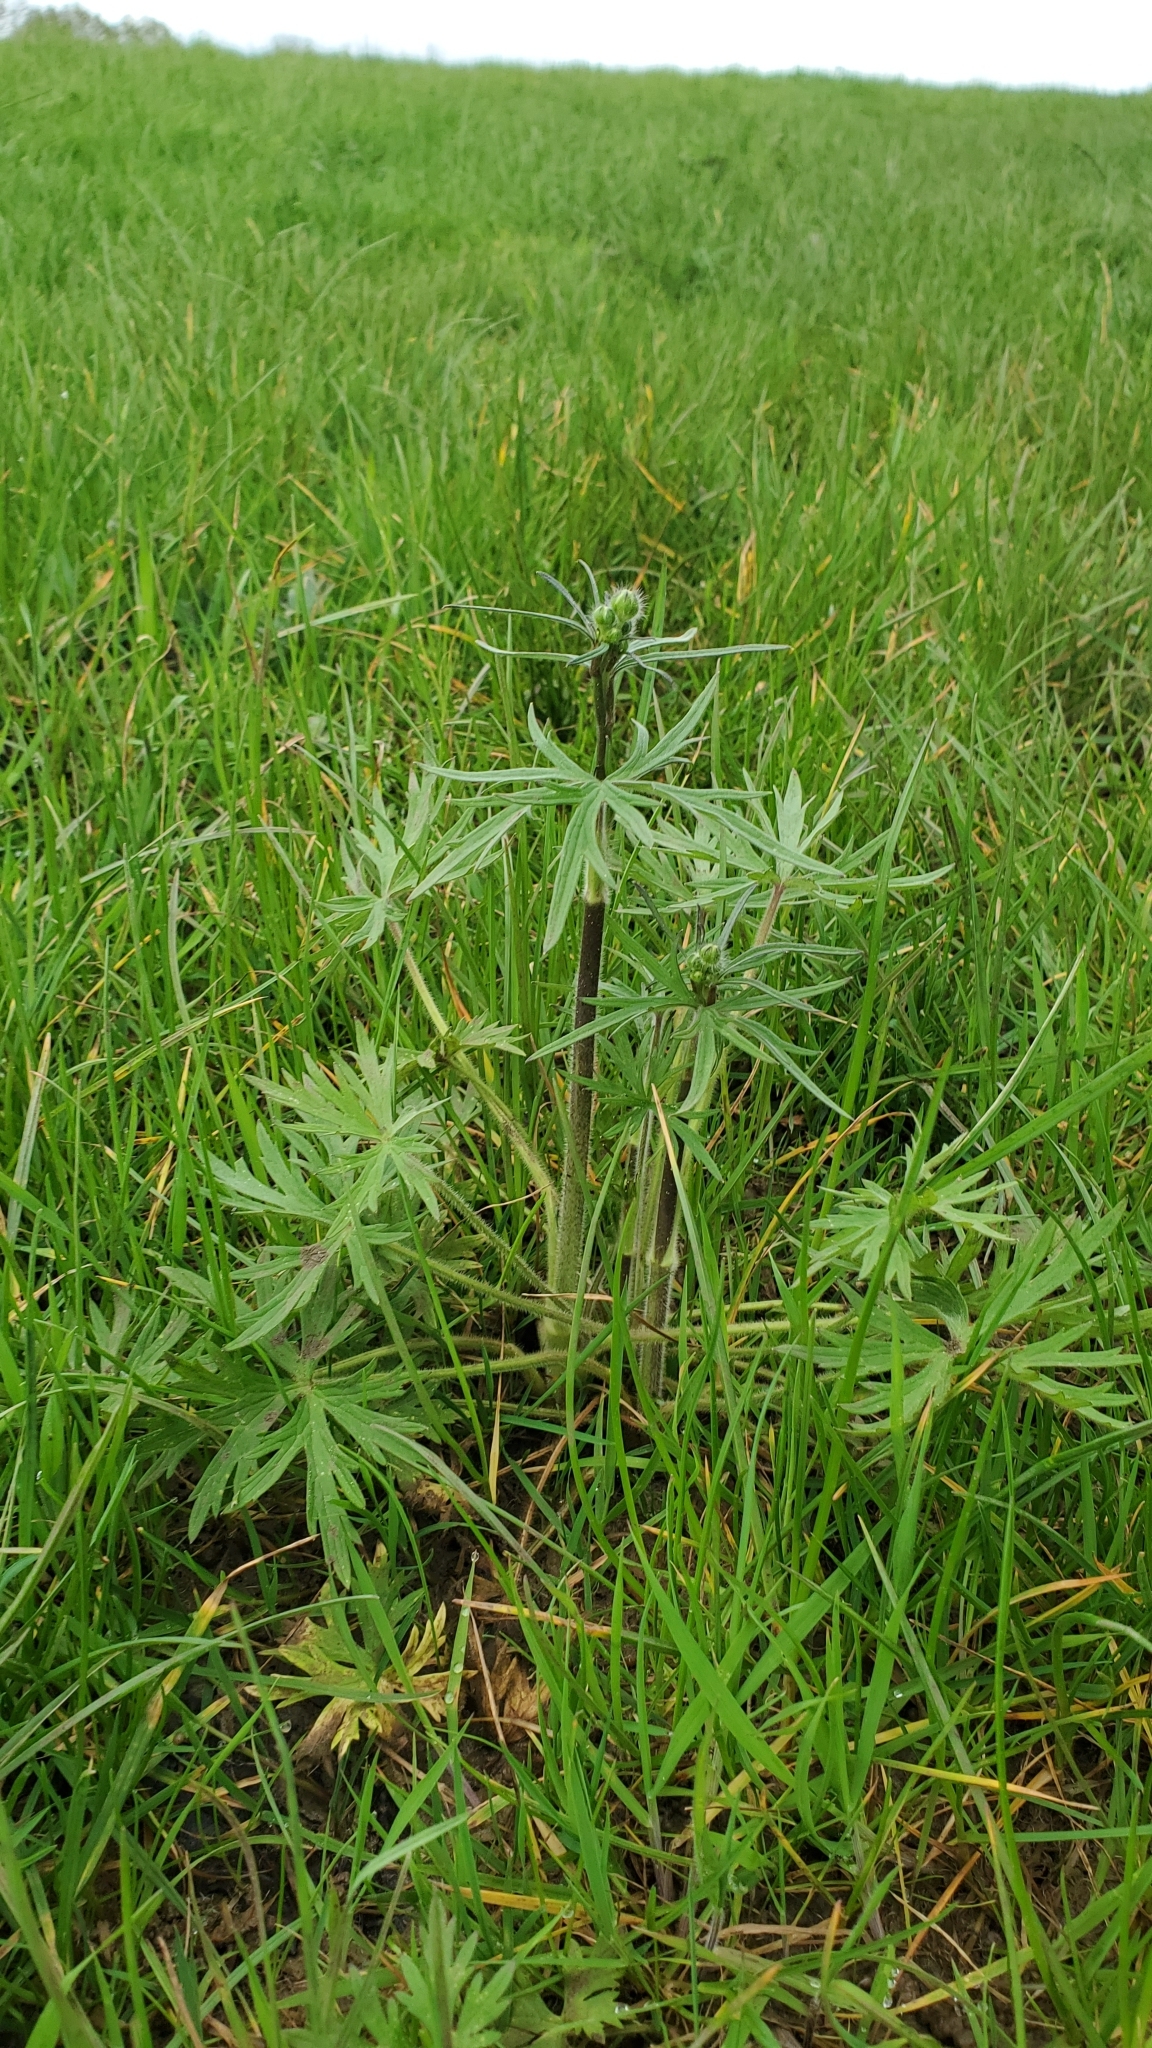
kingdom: Plantae
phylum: Tracheophyta
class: Magnoliopsida
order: Ranunculales
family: Ranunculaceae
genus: Ranunculus
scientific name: Ranunculus acris
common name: Meadow buttercup
